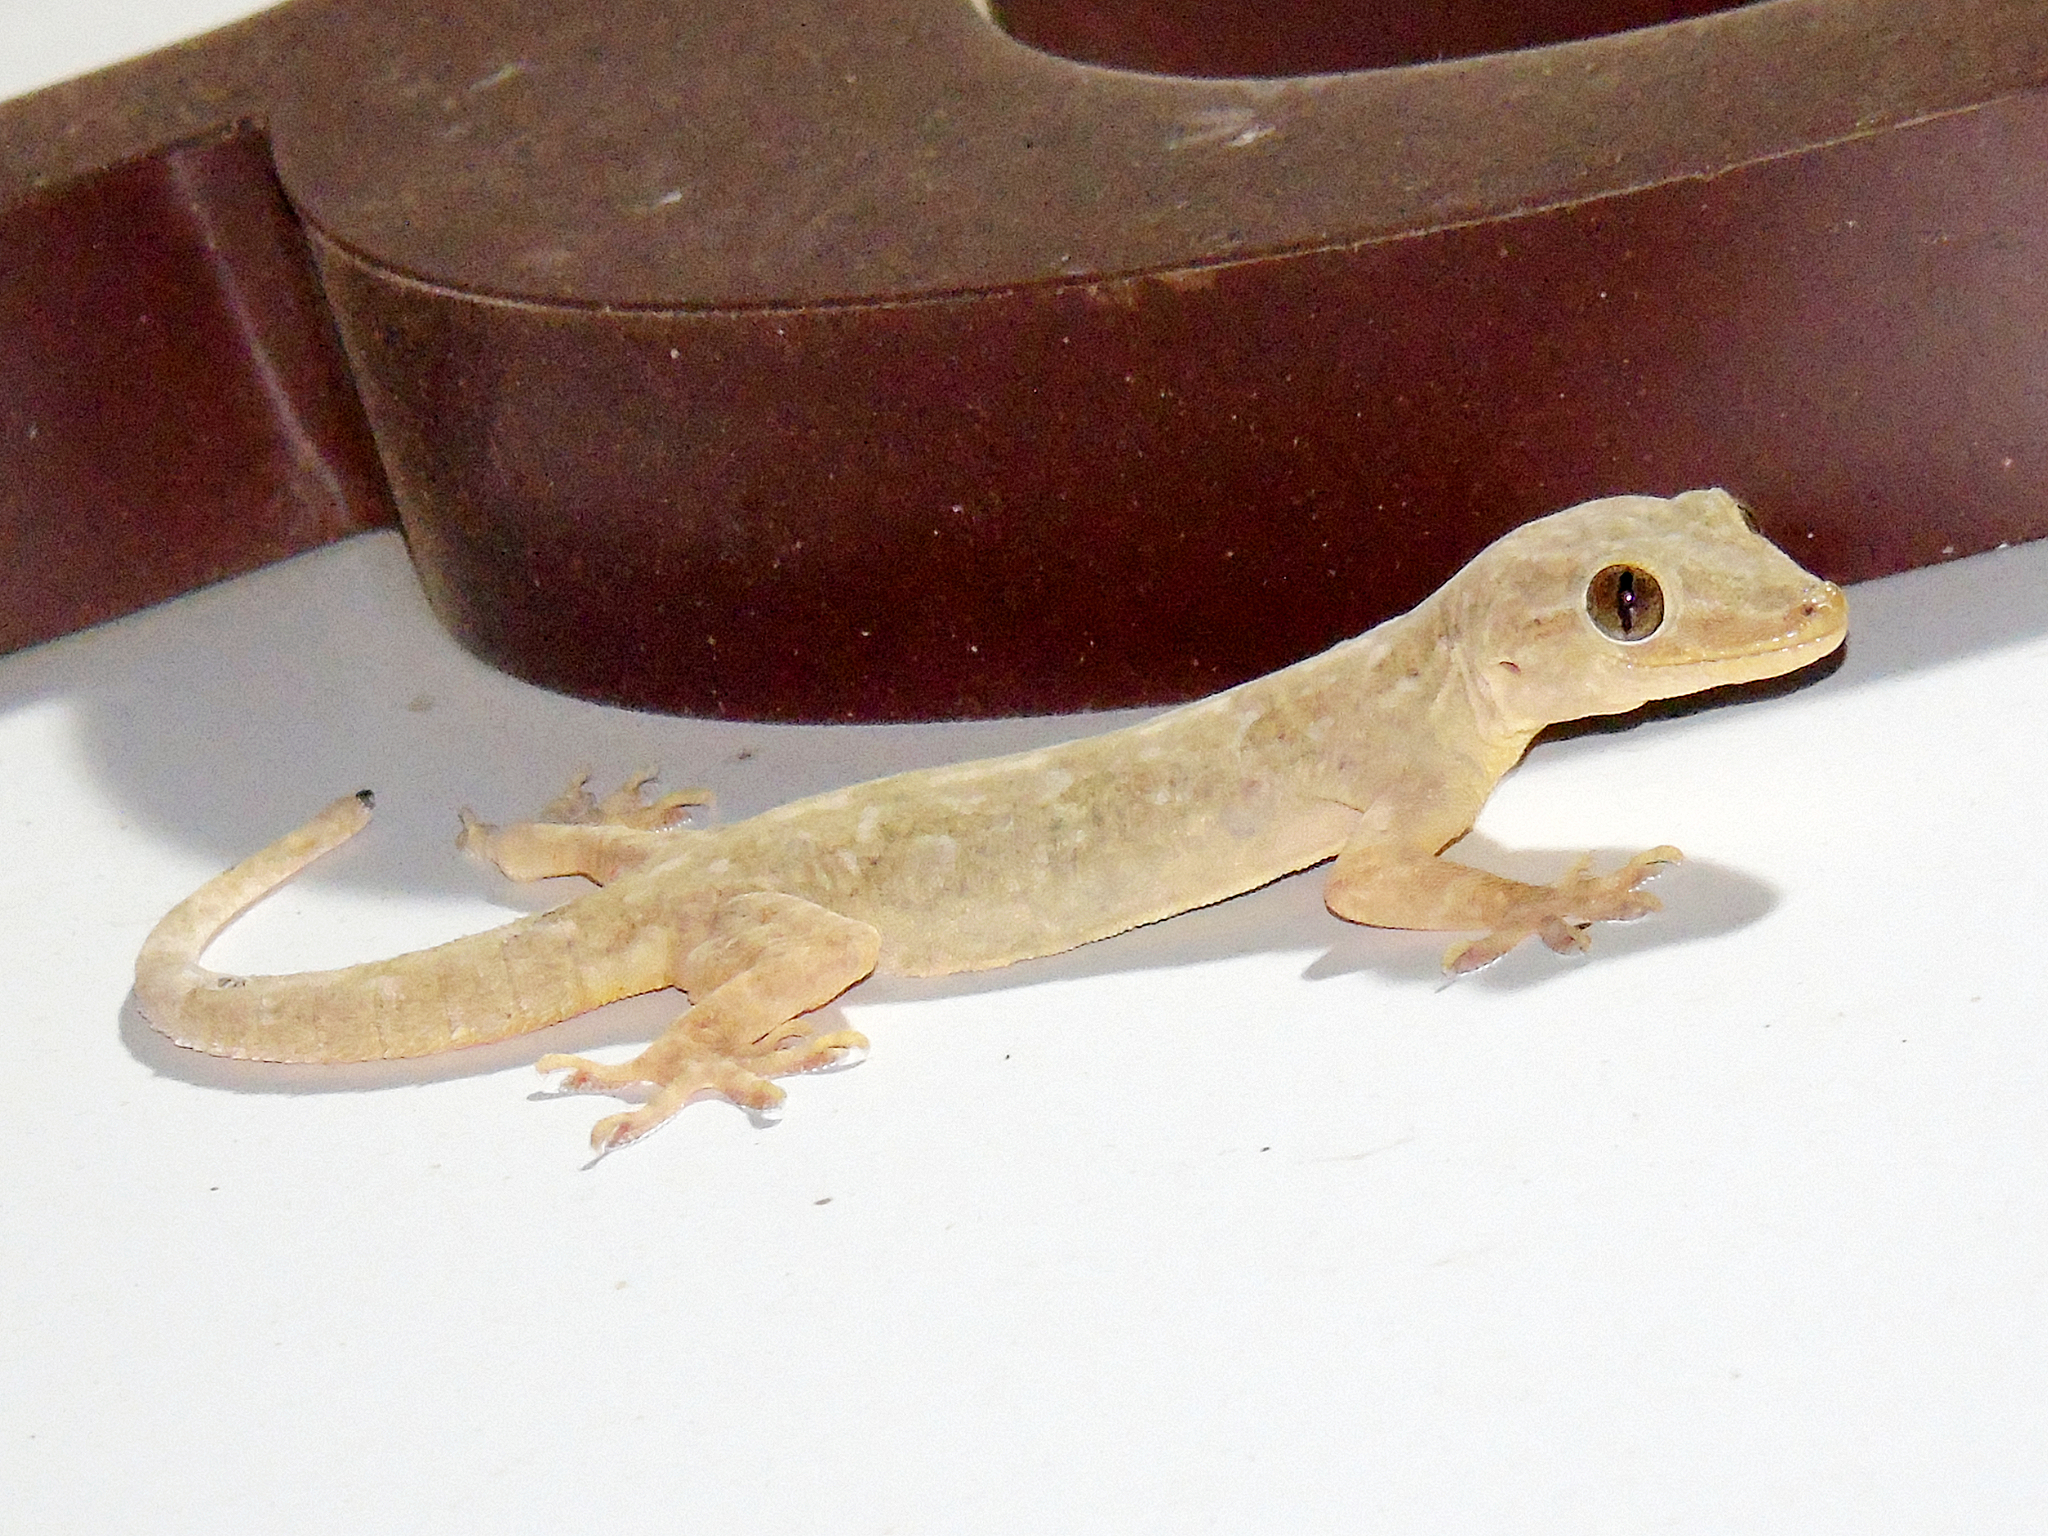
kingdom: Animalia
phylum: Chordata
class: Squamata
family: Gekkonidae
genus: Hemidactylus
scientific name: Hemidactylus flaviviridis
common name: Northern house gecko
